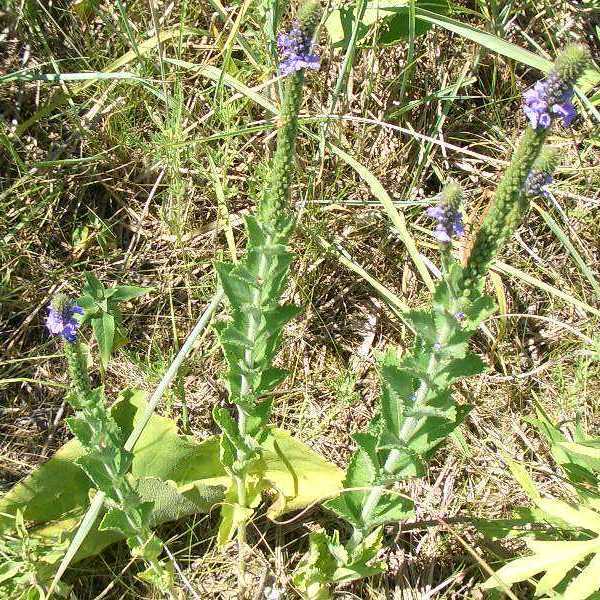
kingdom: Plantae
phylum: Tracheophyta
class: Magnoliopsida
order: Lamiales
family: Verbenaceae
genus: Verbena
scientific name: Verbena stricta
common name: Hoary vervain
